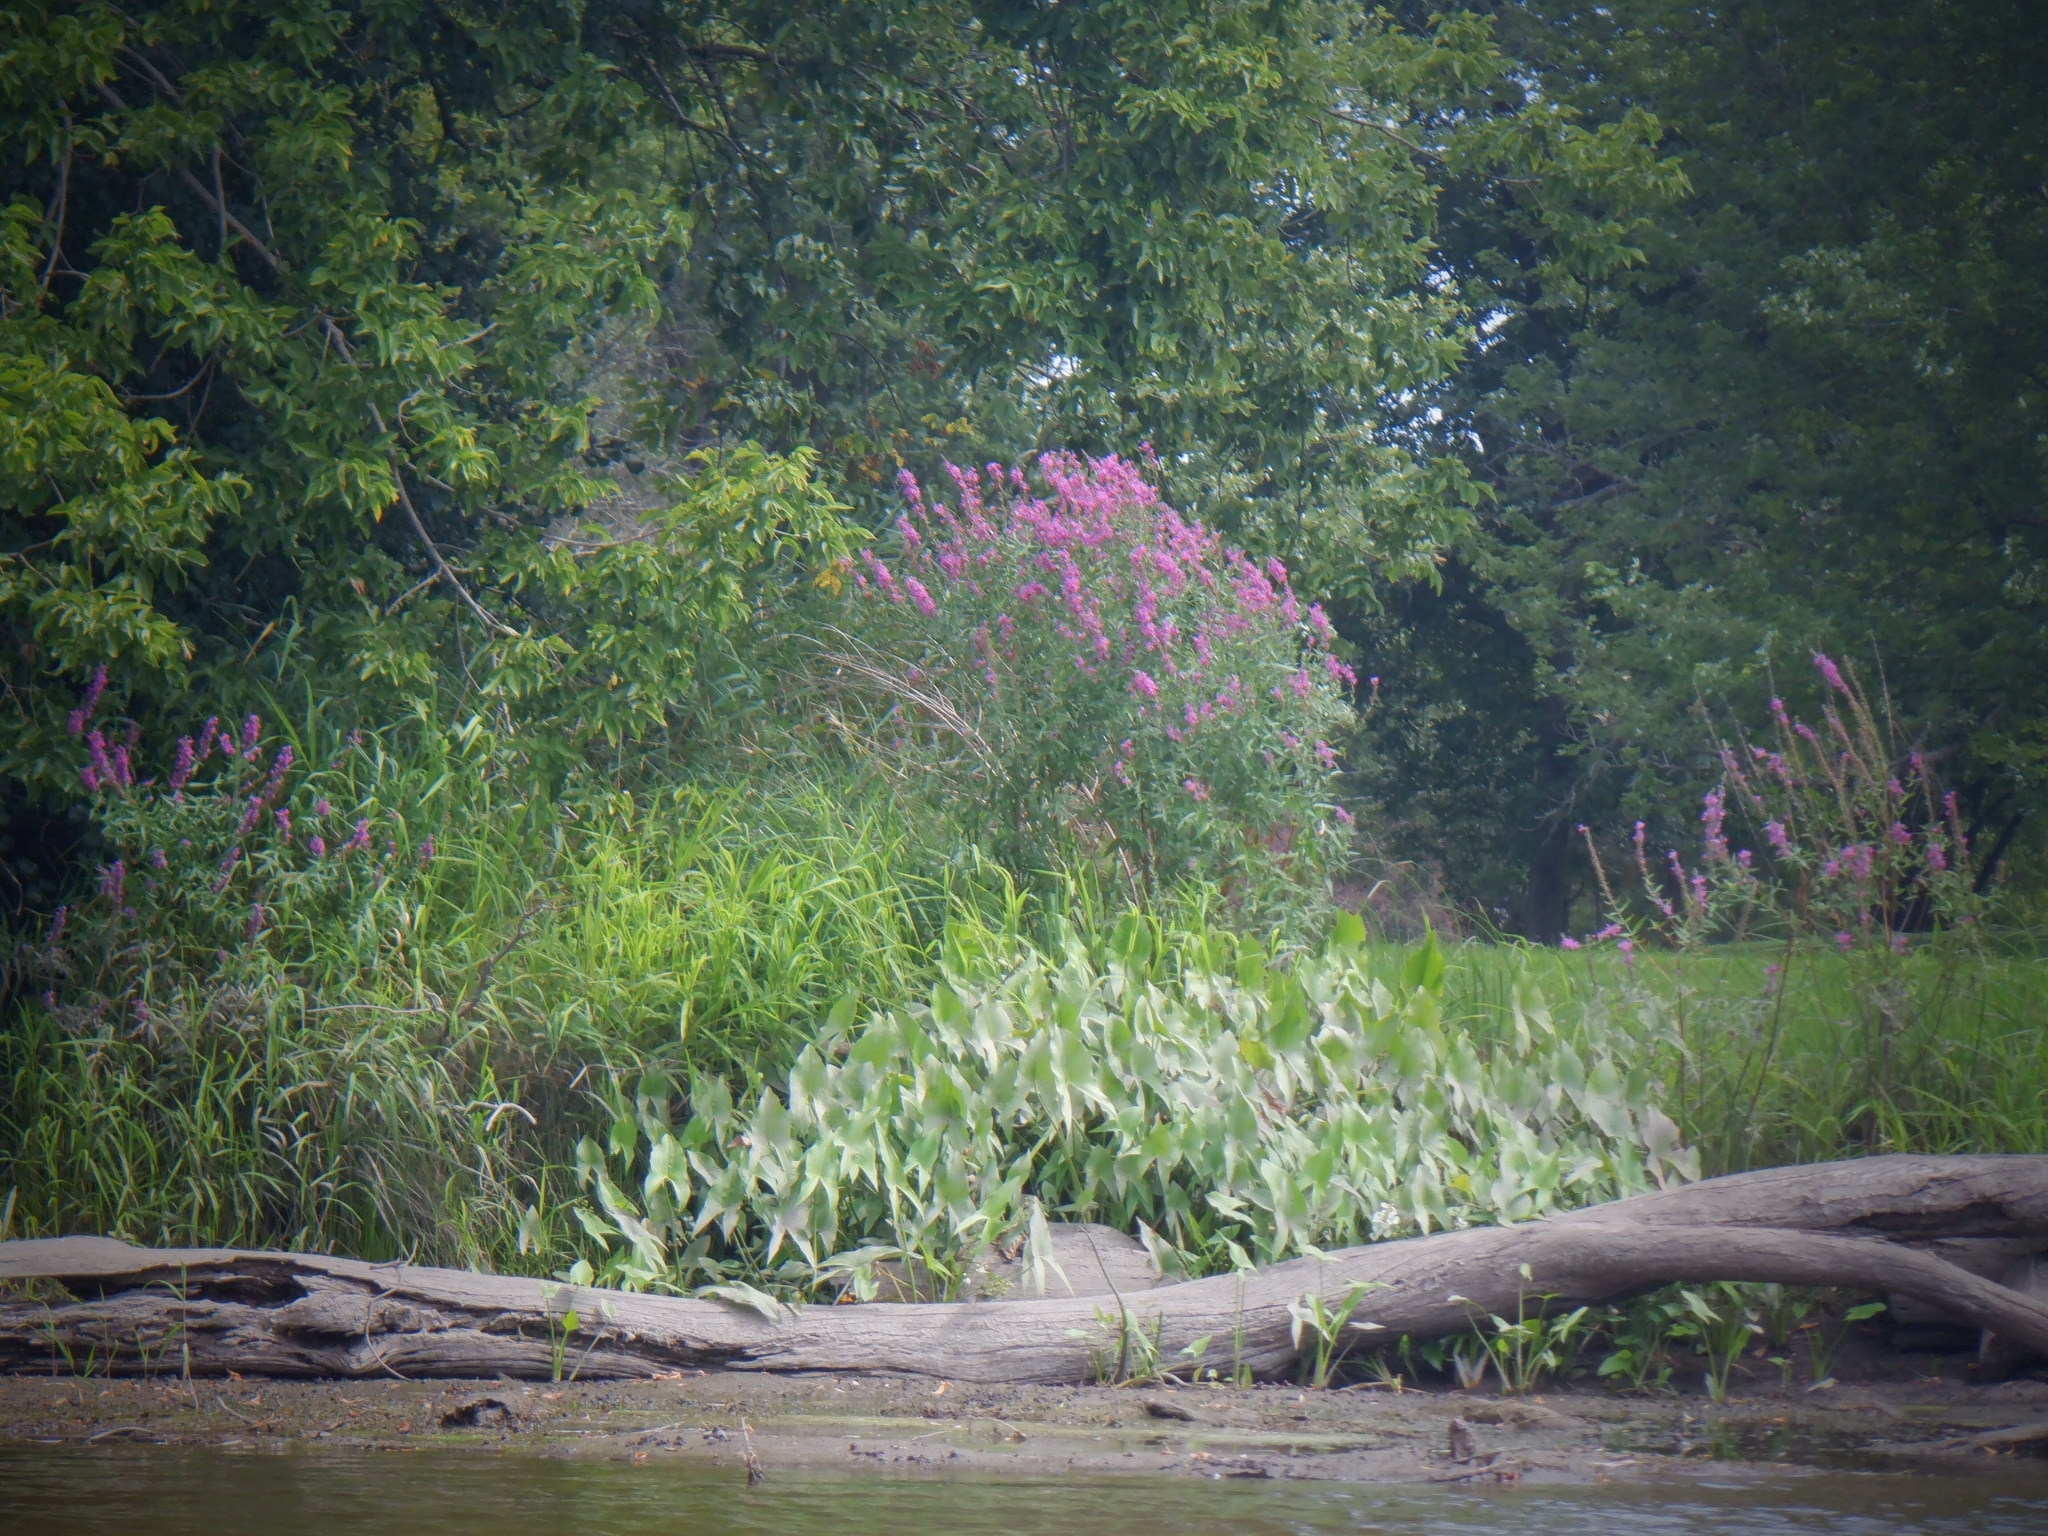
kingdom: Plantae
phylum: Tracheophyta
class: Magnoliopsida
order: Myrtales
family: Lythraceae
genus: Lythrum
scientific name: Lythrum salicaria
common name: Purple loosestrife
